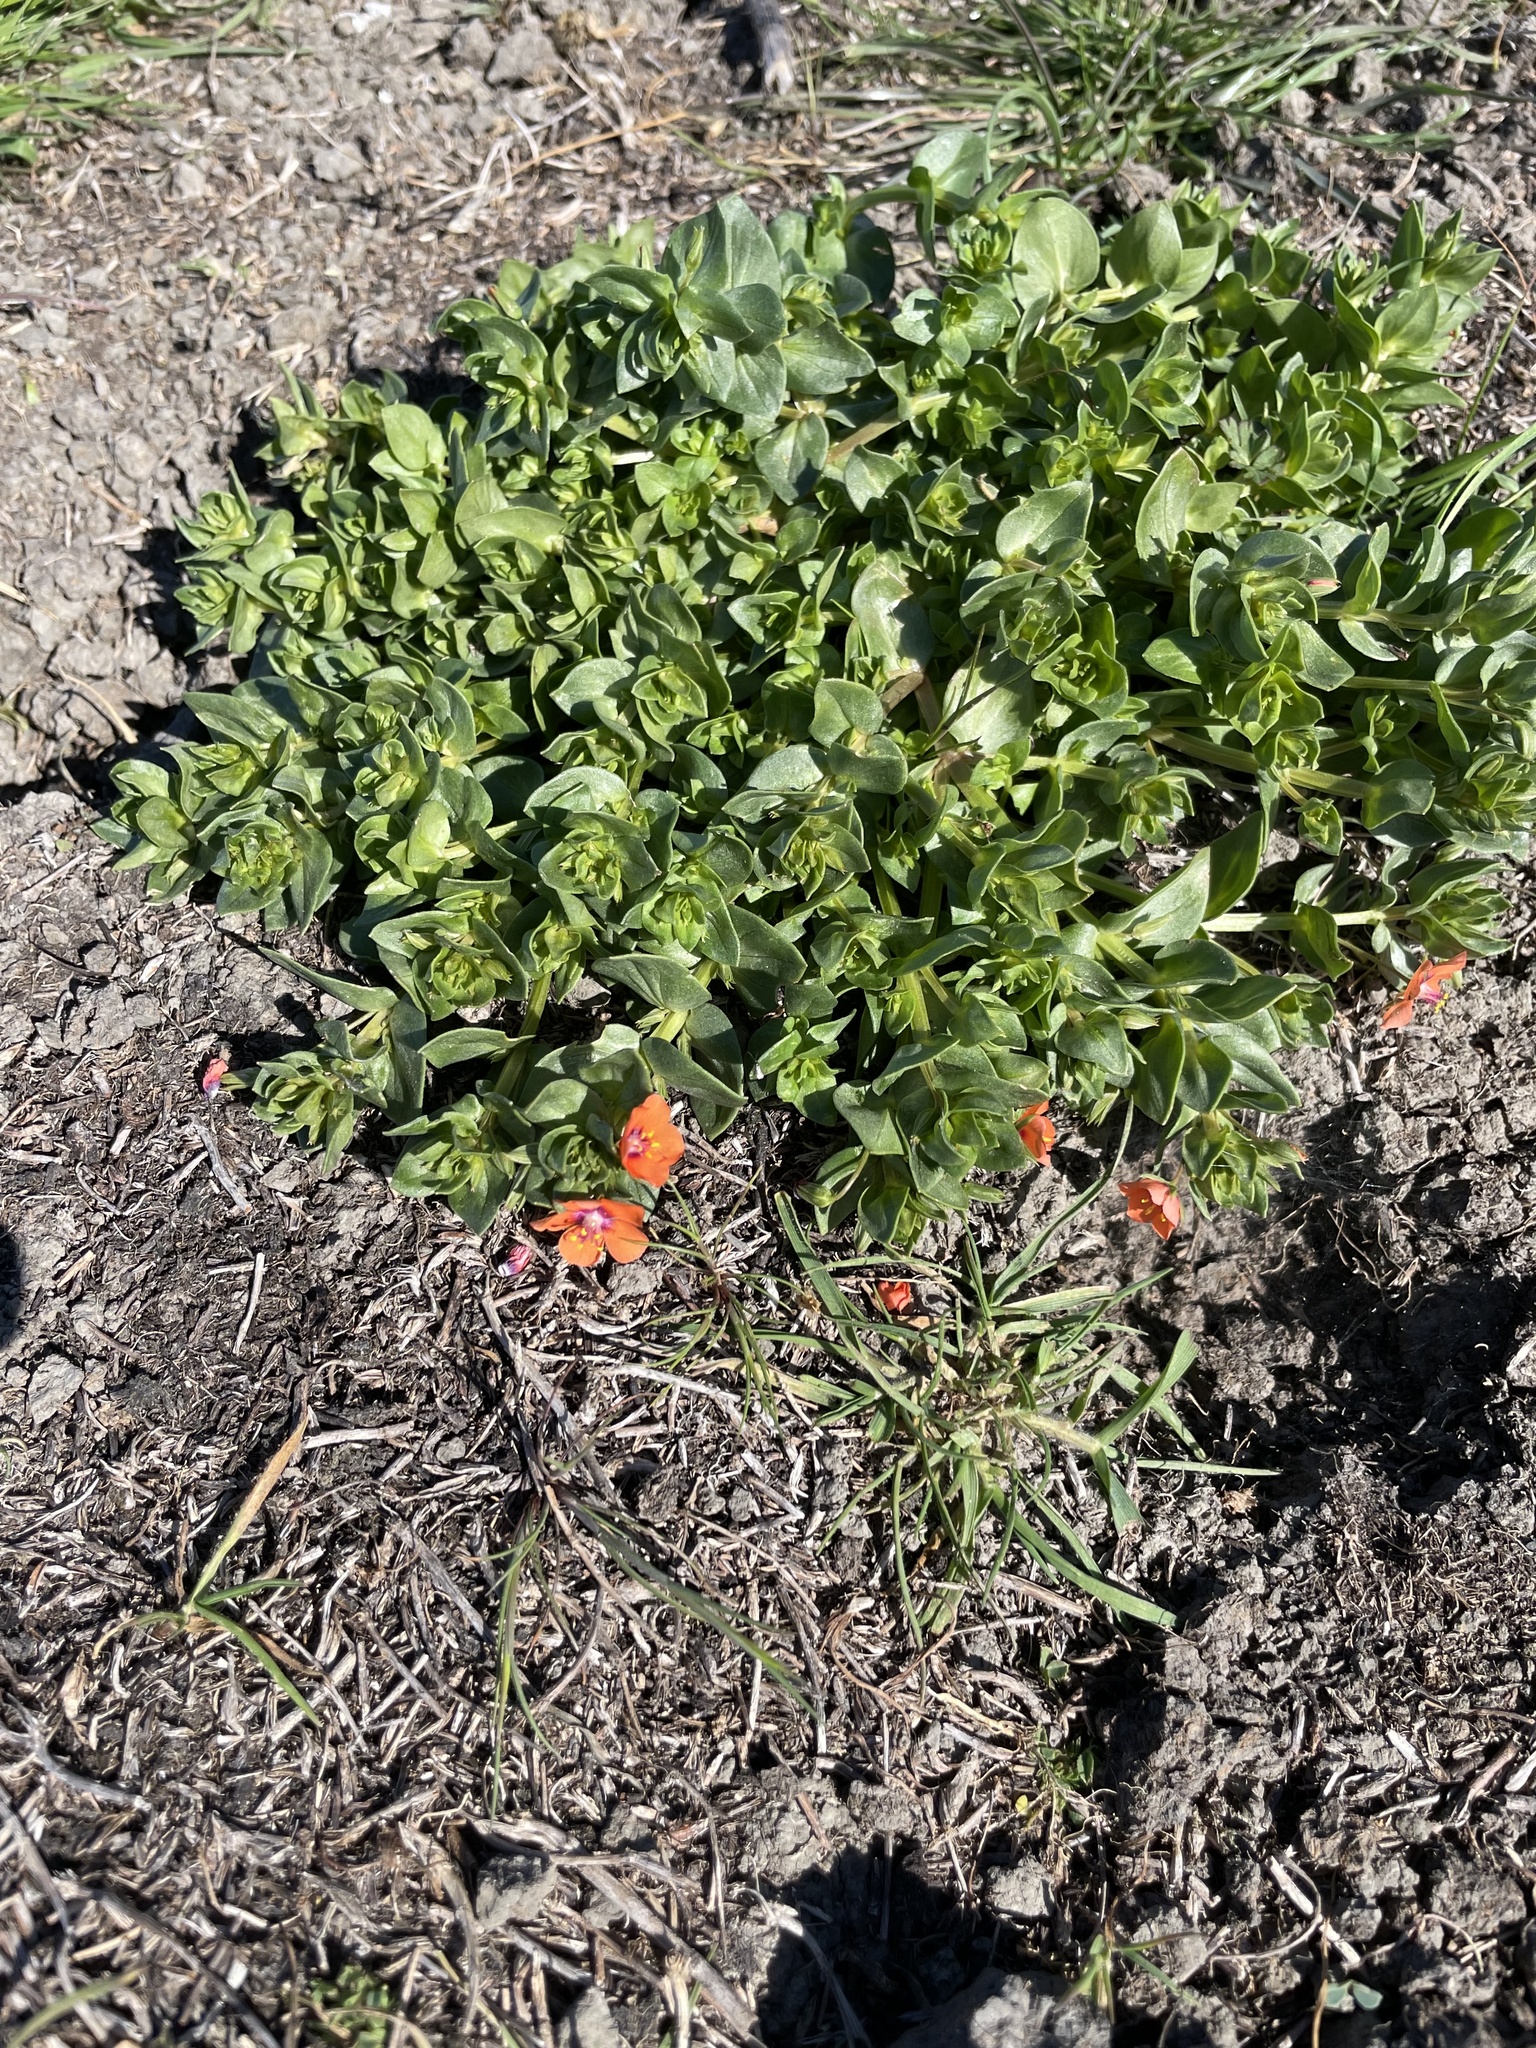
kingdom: Plantae
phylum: Tracheophyta
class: Magnoliopsida
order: Ericales
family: Primulaceae
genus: Lysimachia
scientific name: Lysimachia arvensis
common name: Scarlet pimpernel
